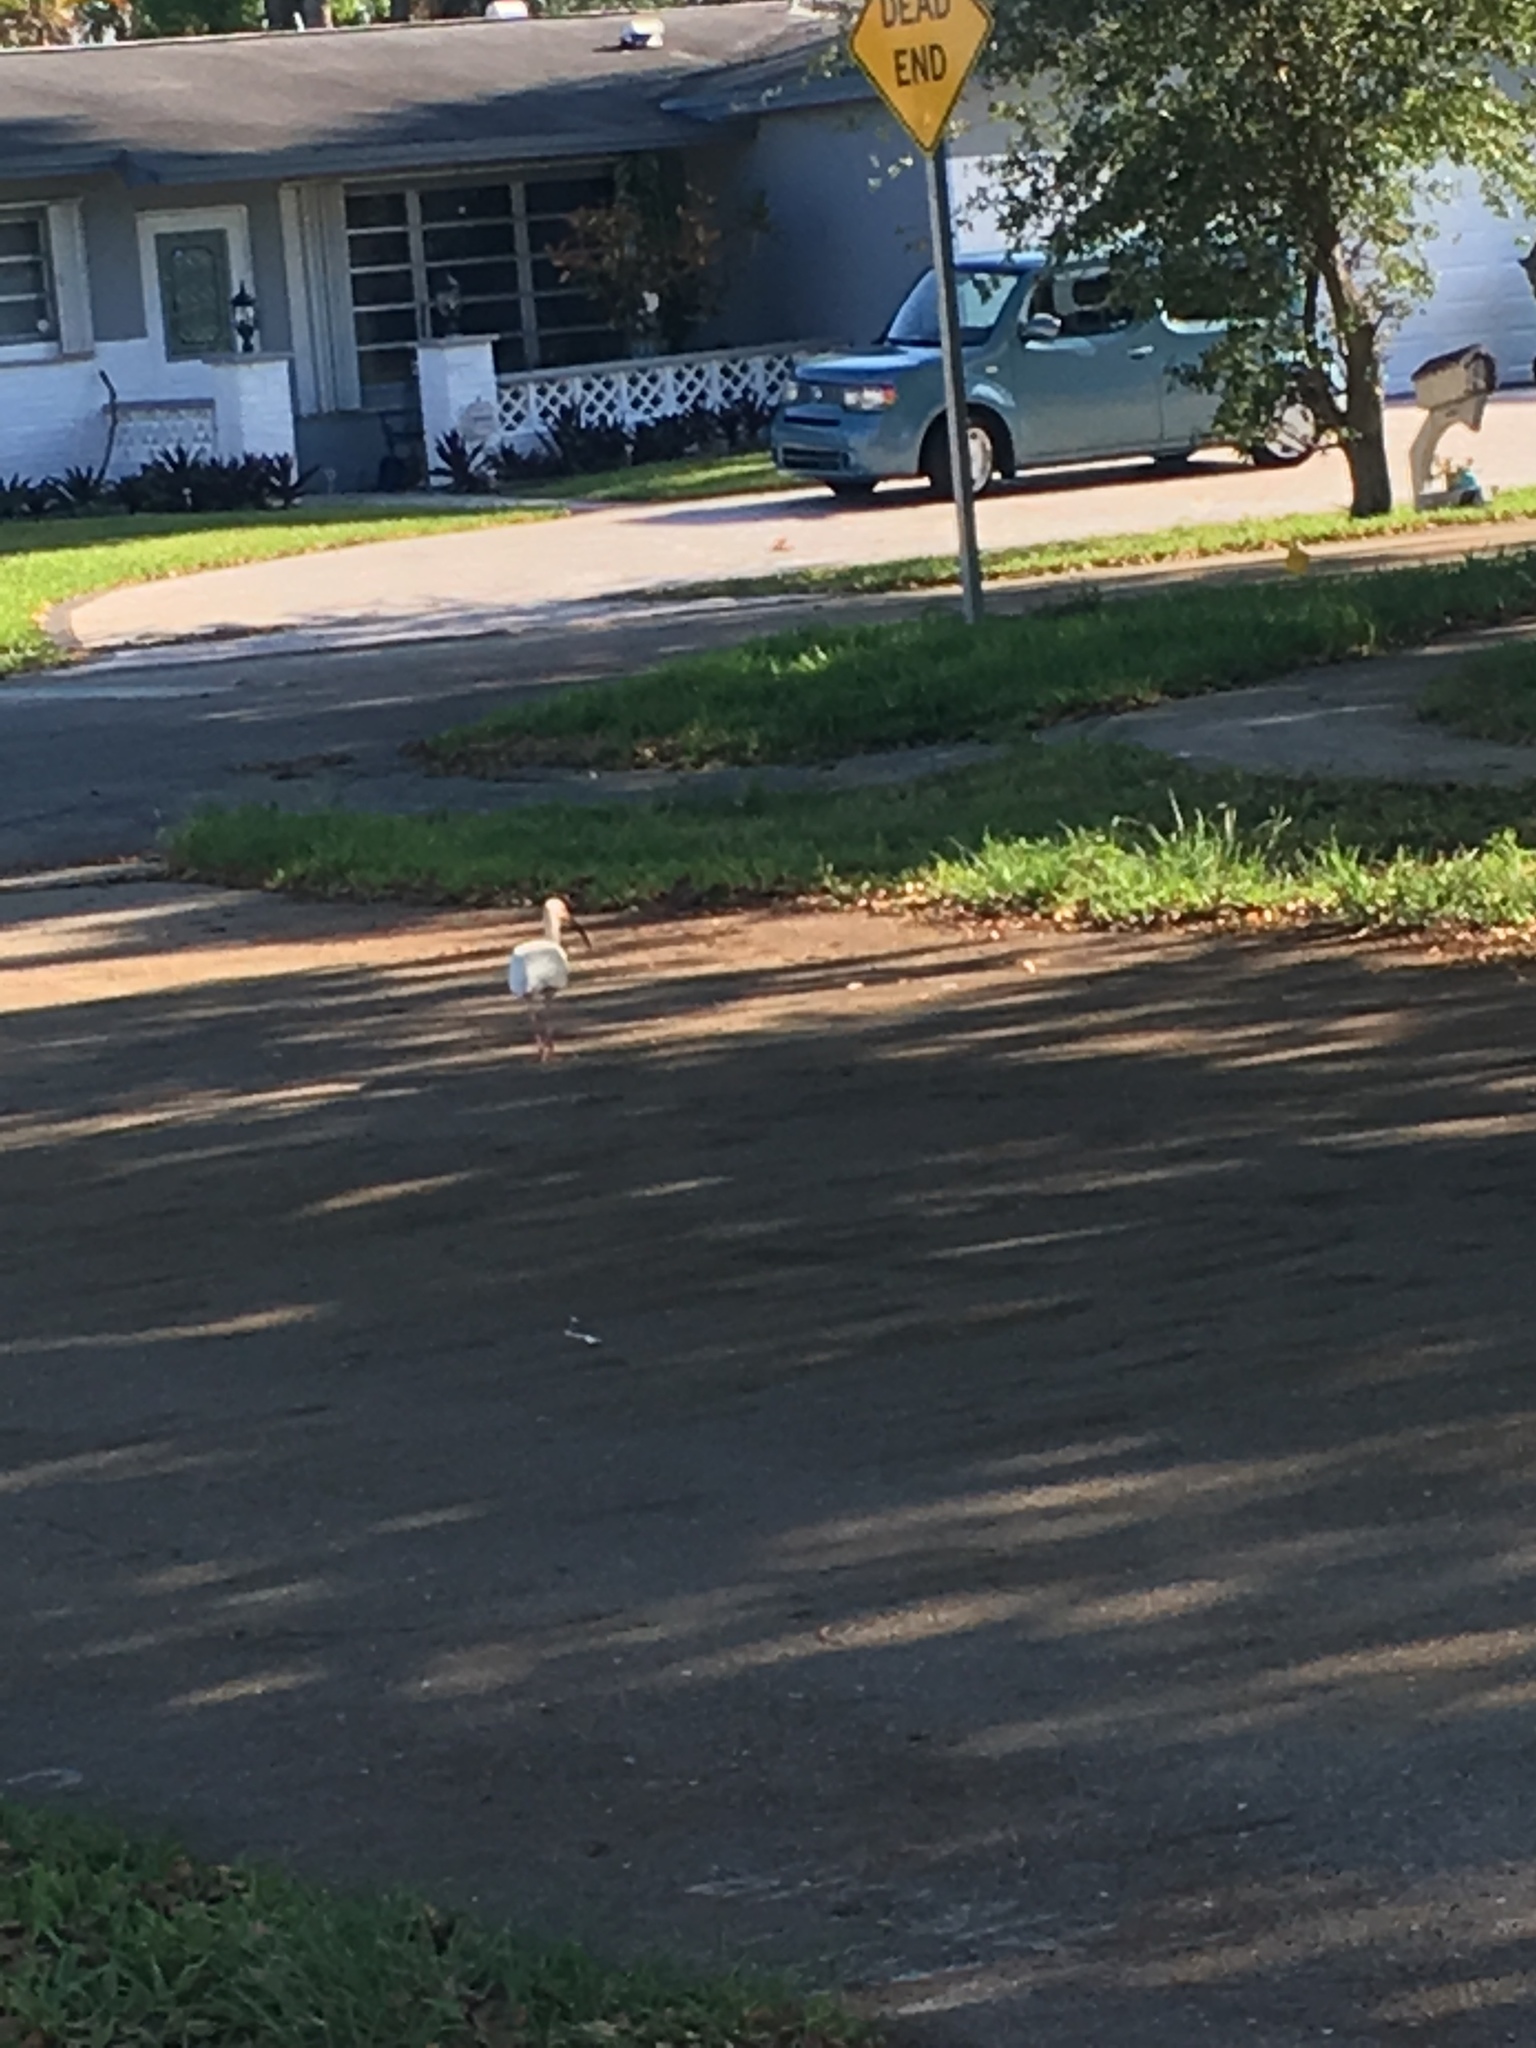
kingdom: Animalia
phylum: Chordata
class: Aves
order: Pelecaniformes
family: Threskiornithidae
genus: Eudocimus
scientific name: Eudocimus albus
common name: White ibis
